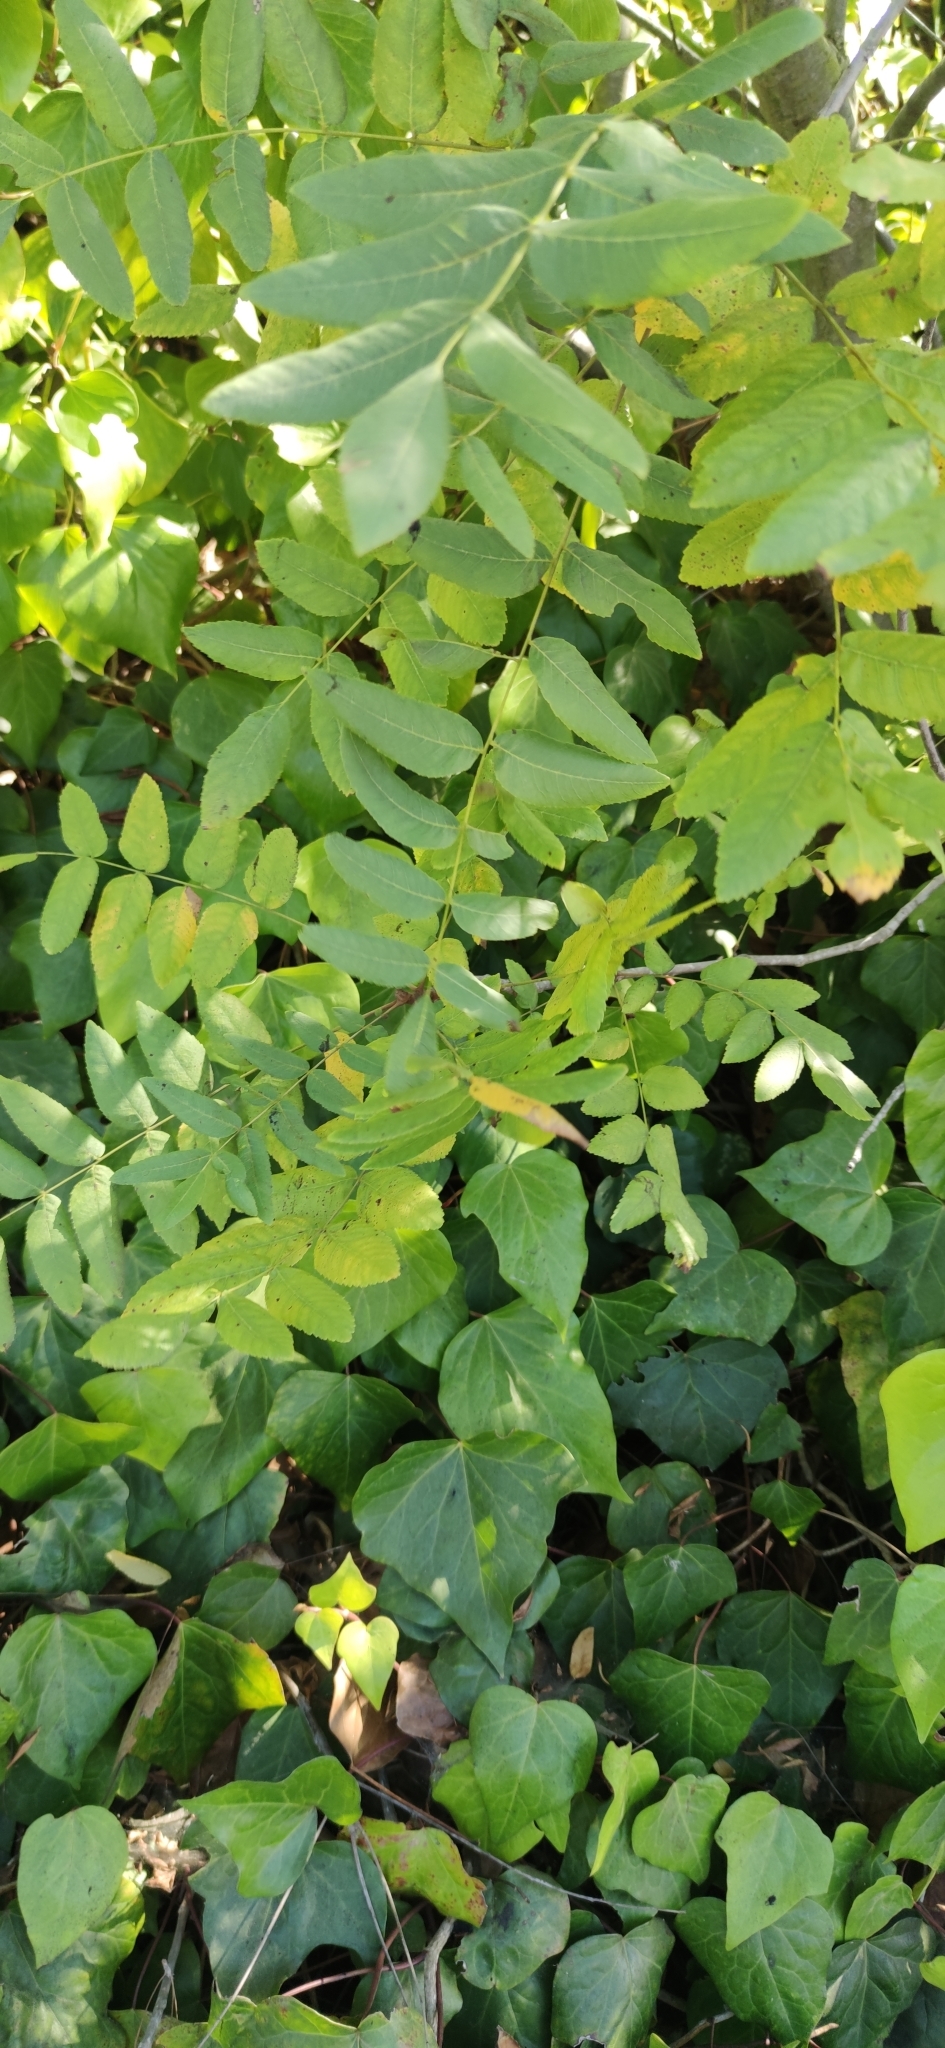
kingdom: Plantae
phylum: Tracheophyta
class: Magnoliopsida
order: Fagales
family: Juglandaceae
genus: Juglans
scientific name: Juglans californica
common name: Southern california black walnut
